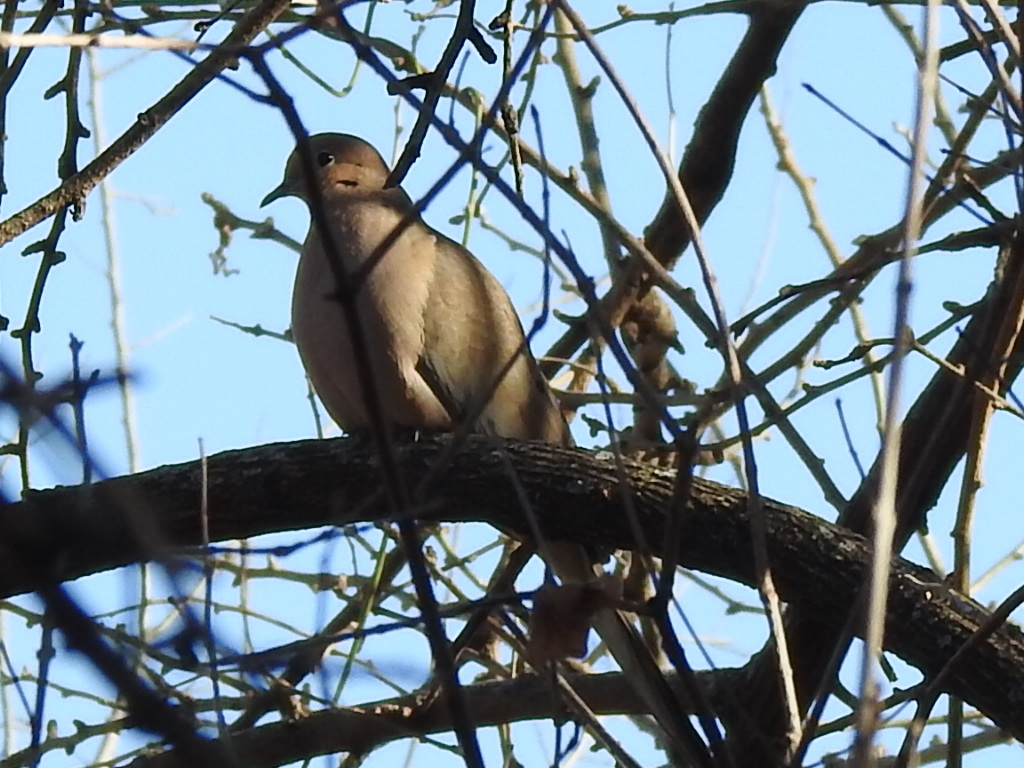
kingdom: Animalia
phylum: Chordata
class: Aves
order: Columbiformes
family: Columbidae
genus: Zenaida
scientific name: Zenaida macroura
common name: Mourning dove
